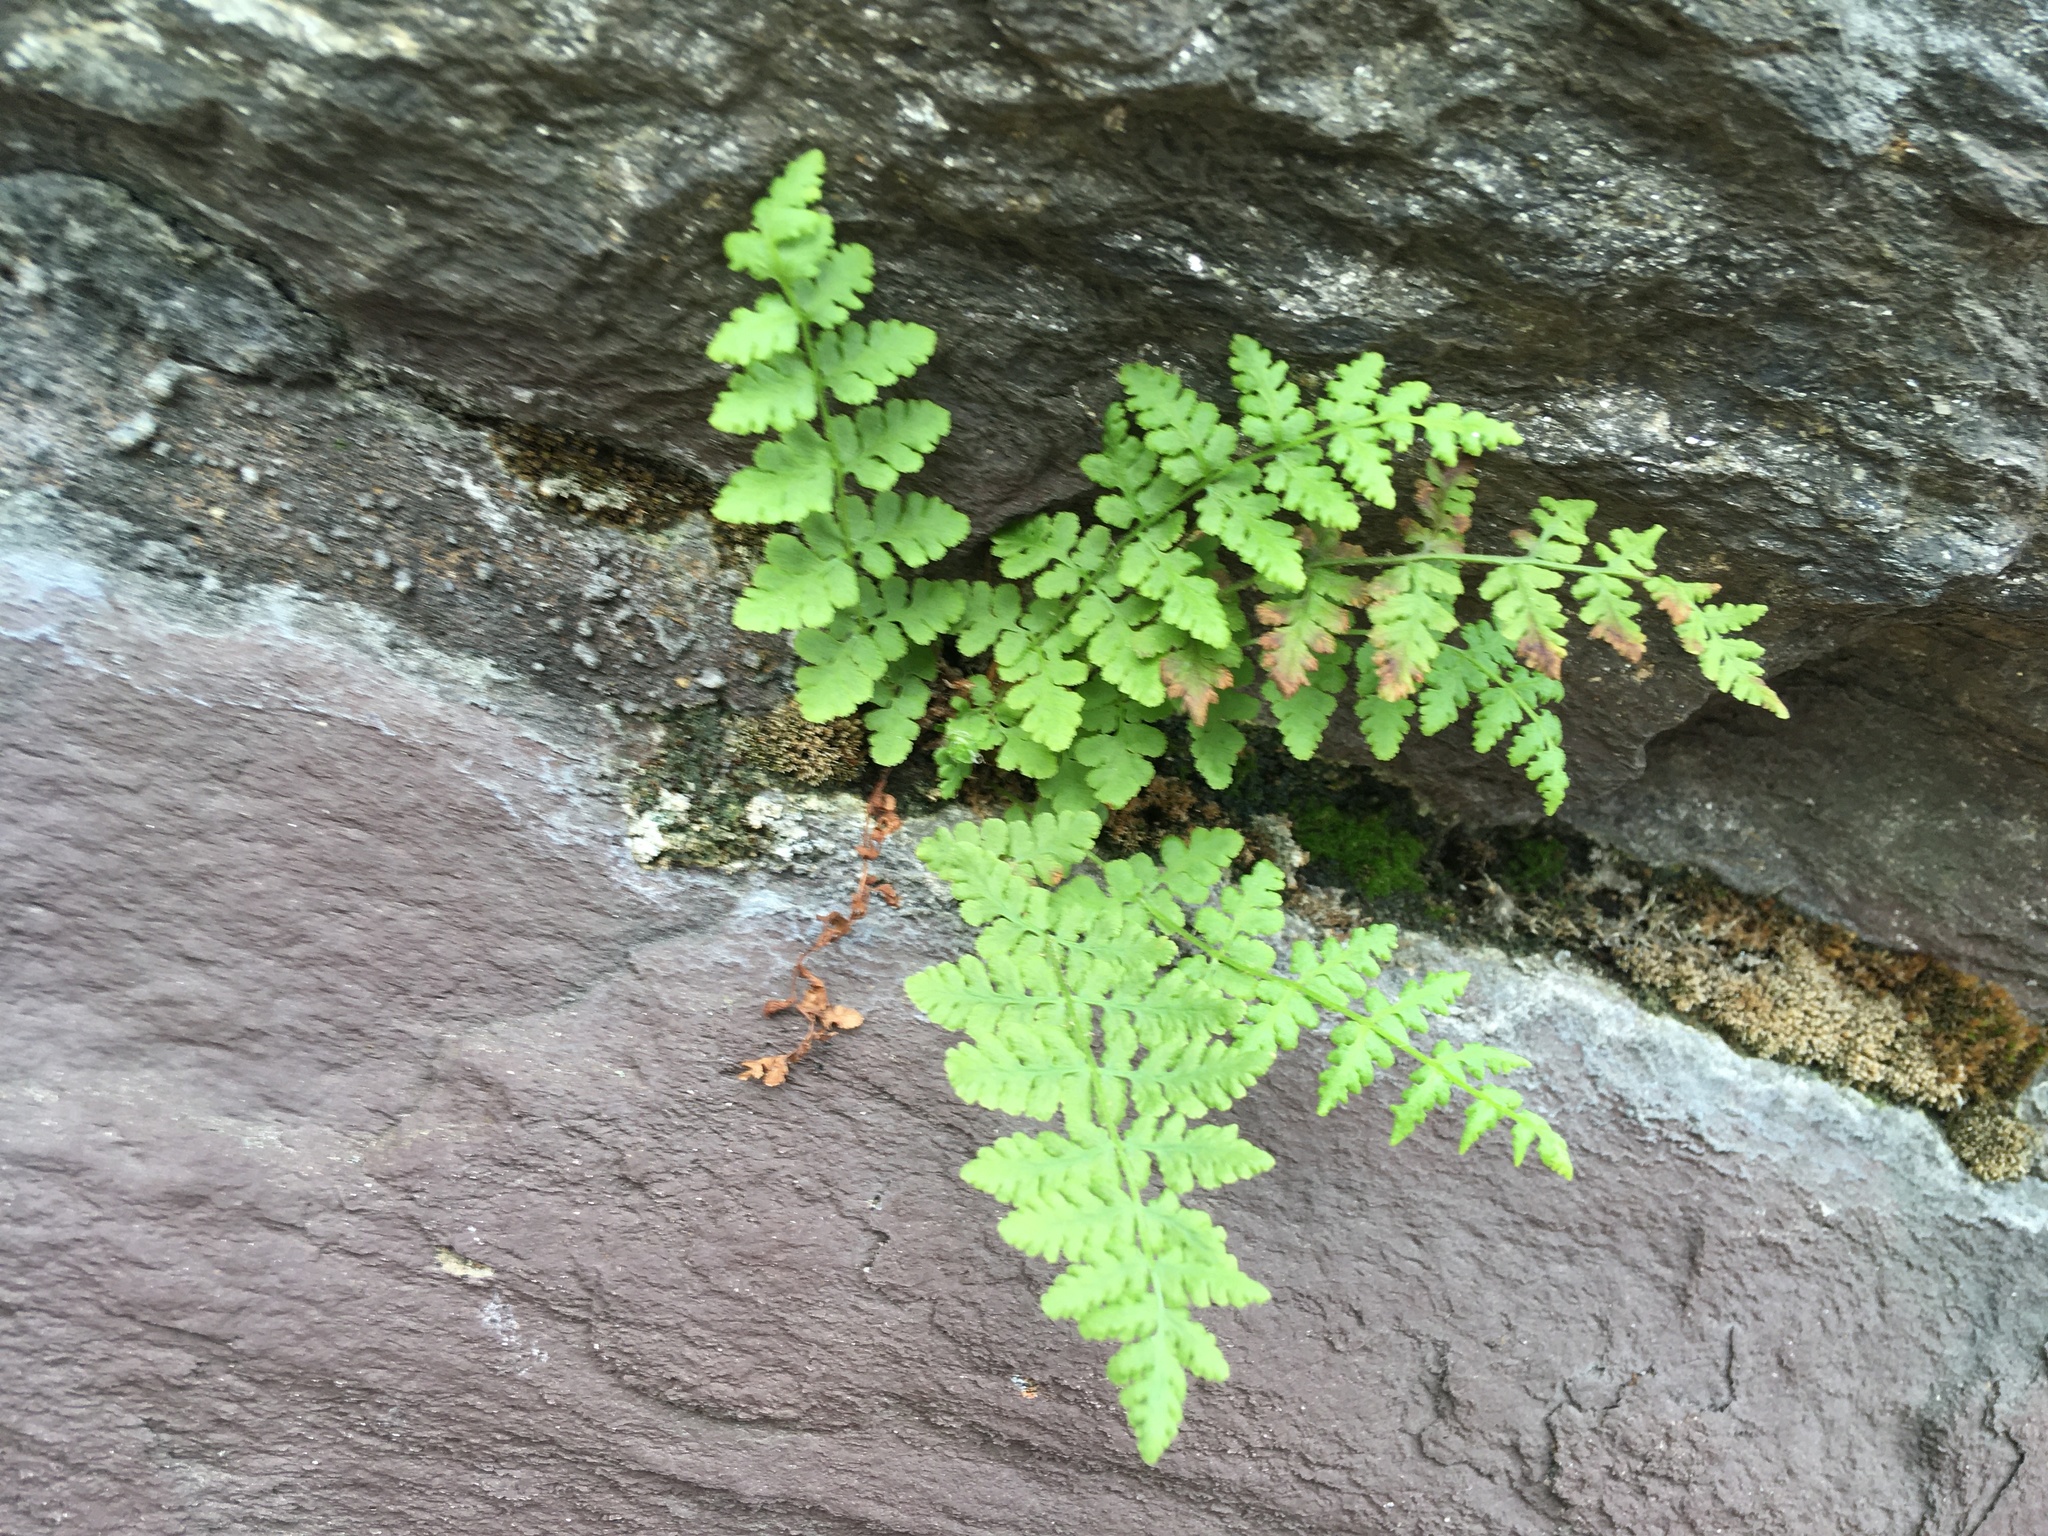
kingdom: Plantae
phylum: Tracheophyta
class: Polypodiopsida
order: Polypodiales
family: Woodsiaceae
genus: Physematium
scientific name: Physematium obtusum
